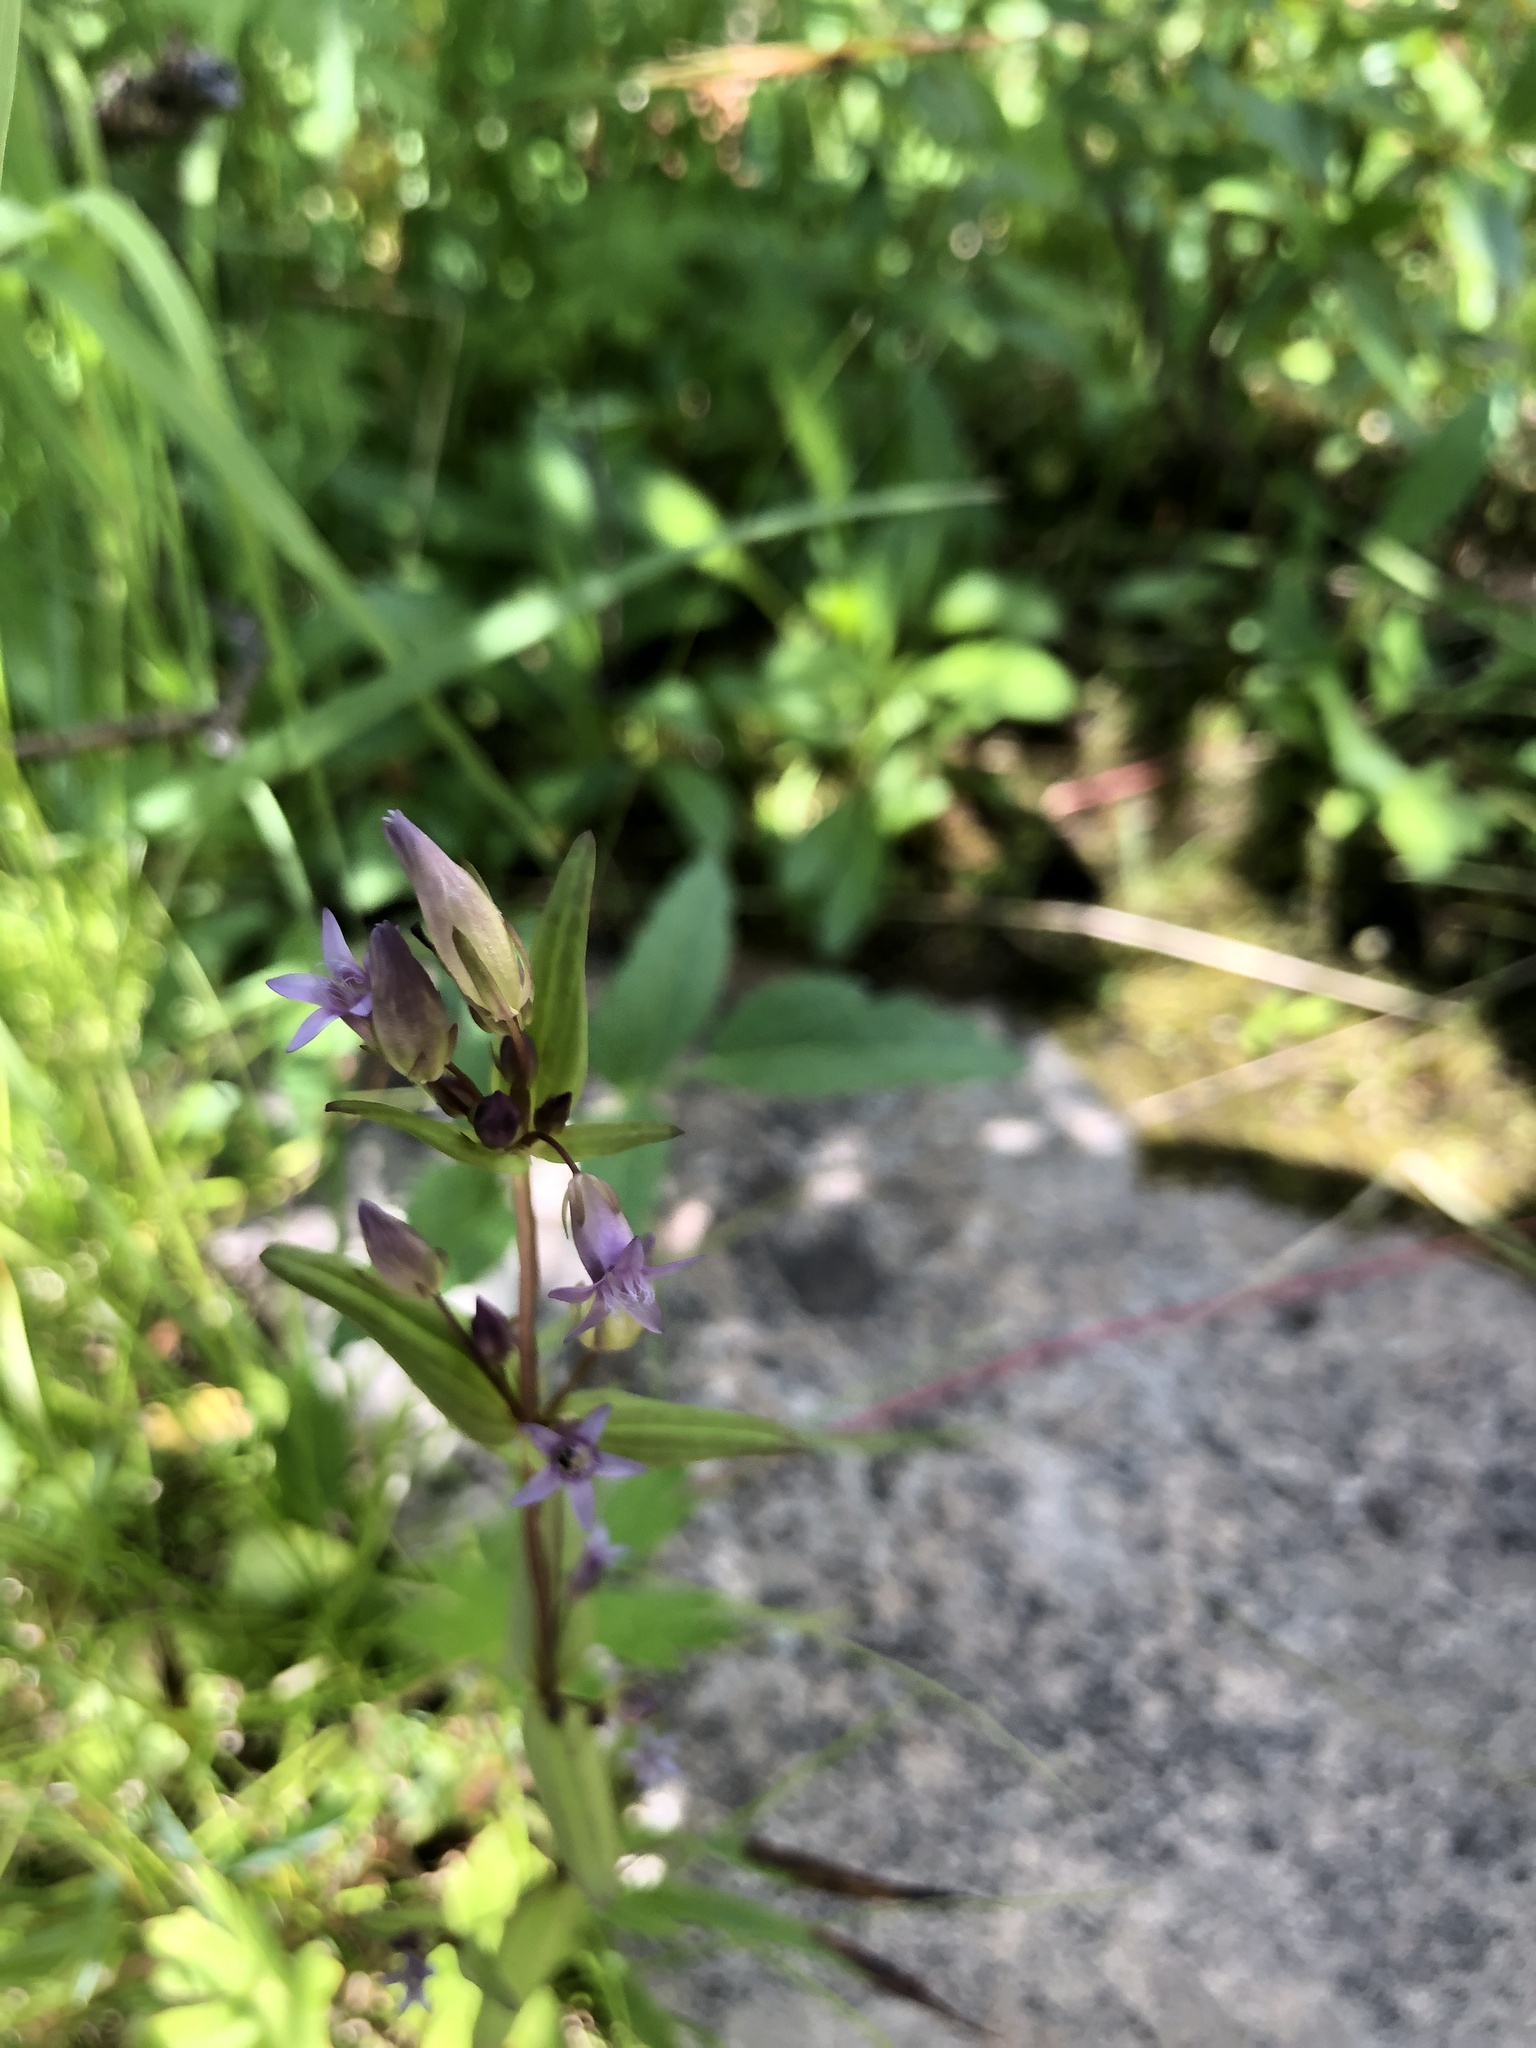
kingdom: Plantae
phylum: Tracheophyta
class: Magnoliopsida
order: Gentianales
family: Gentianaceae
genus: Gentianella
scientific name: Gentianella amarella
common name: Autumn gentian
